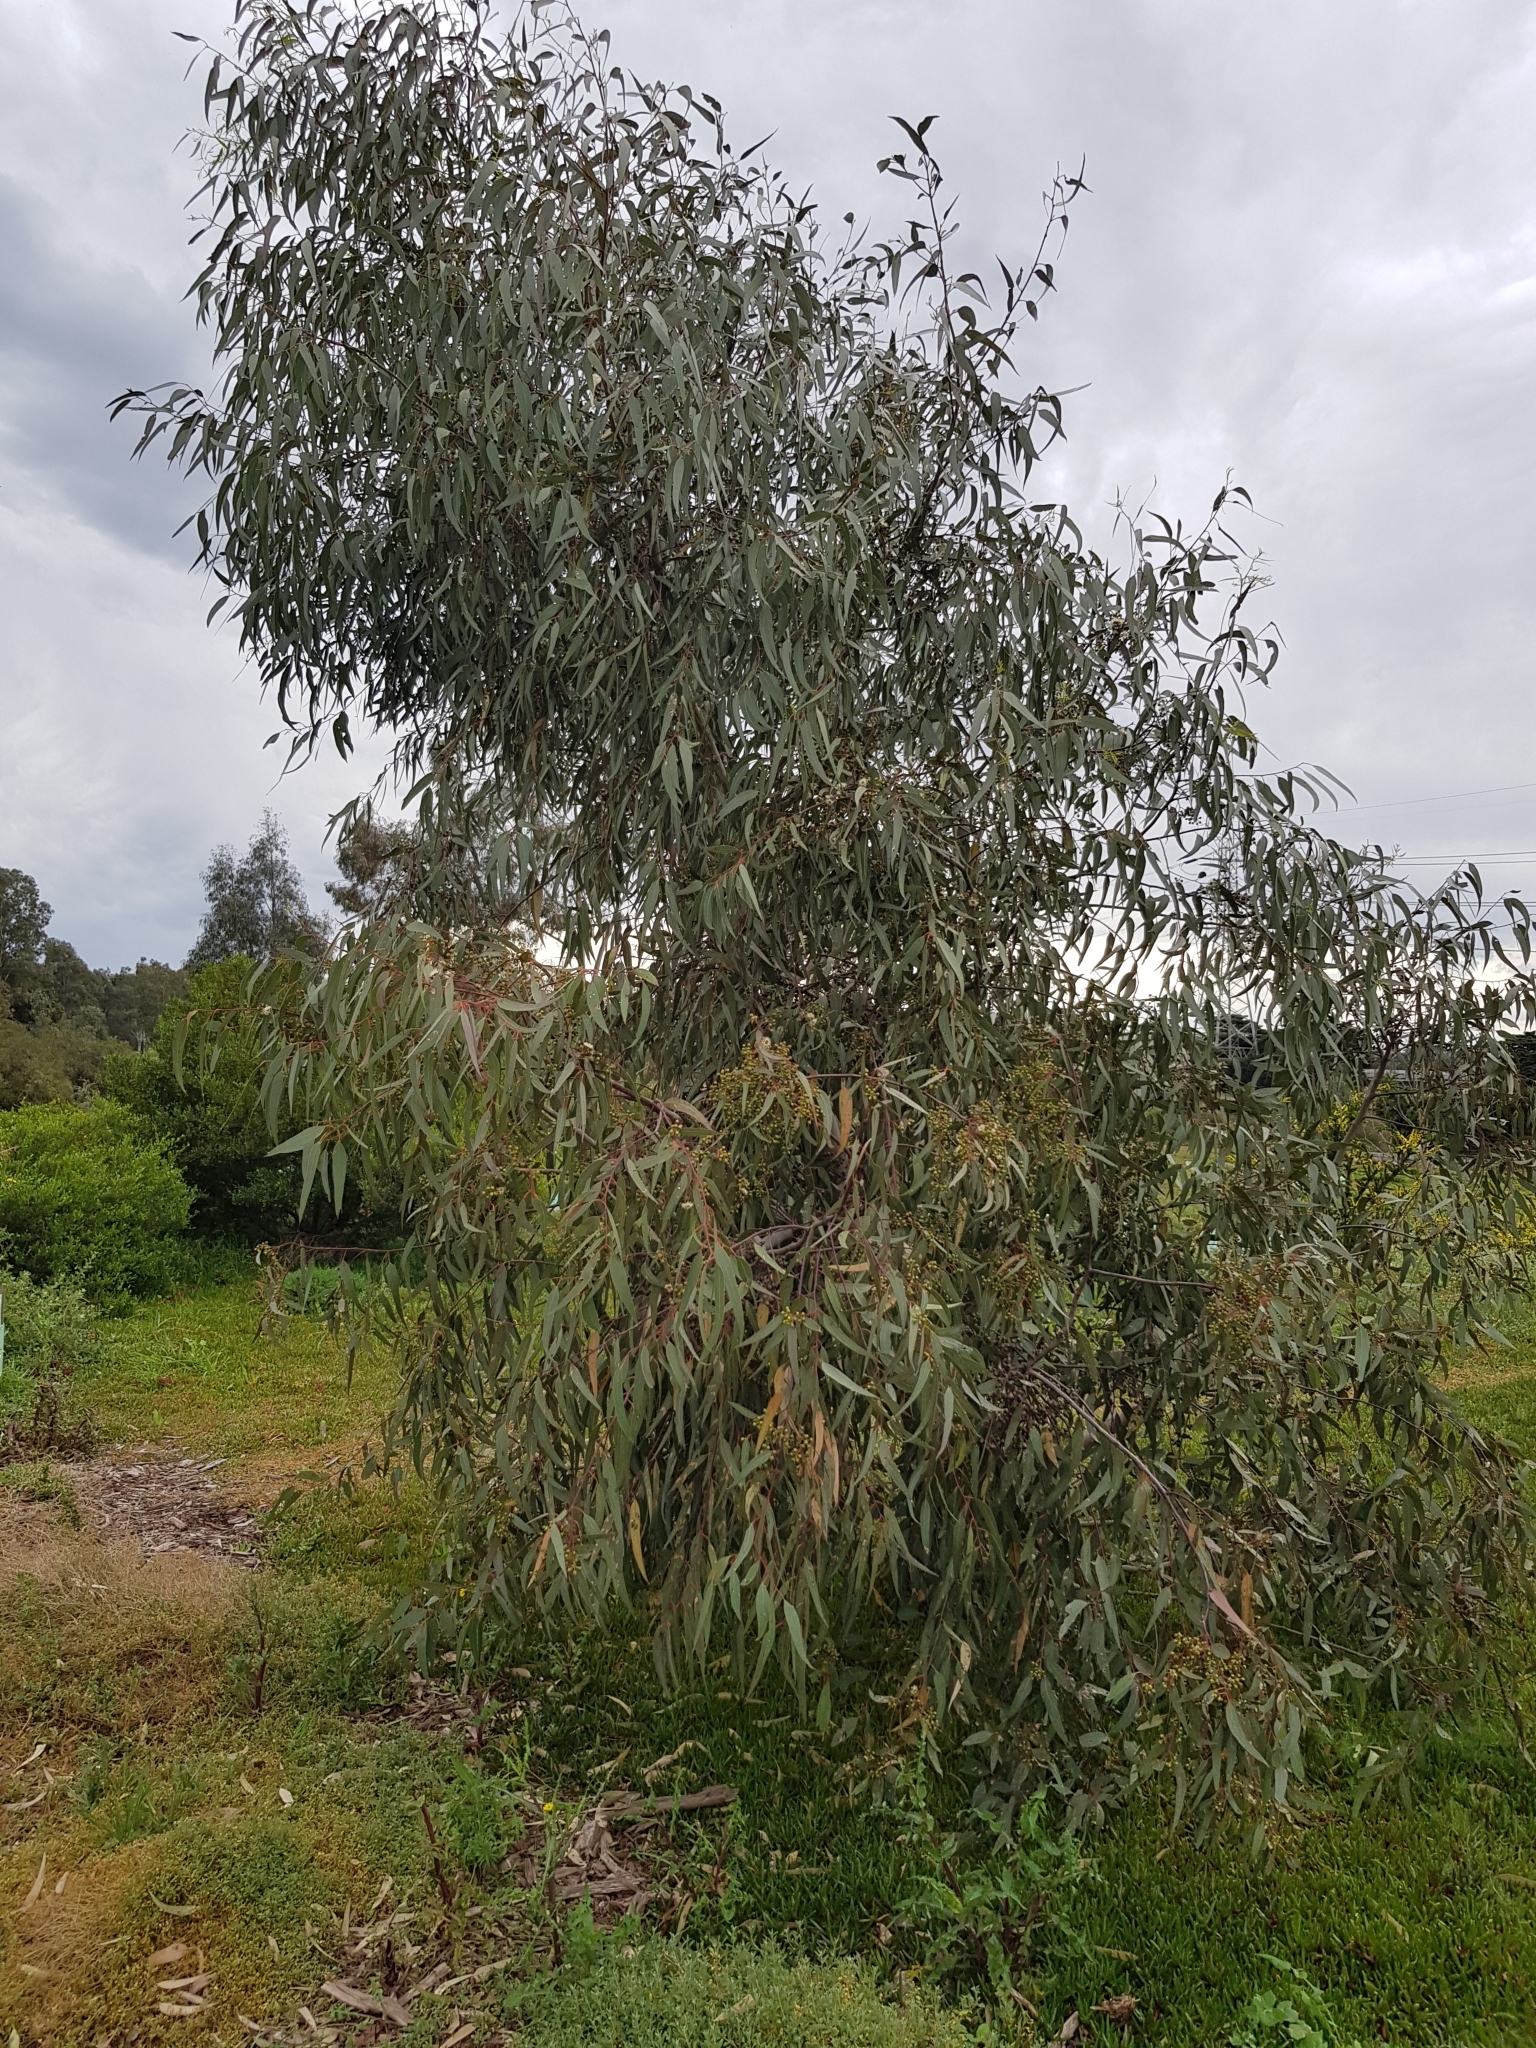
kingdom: Plantae
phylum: Tracheophyta
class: Magnoliopsida
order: Myrtales
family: Myrtaceae
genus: Eucalyptus
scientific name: Eucalyptus camaldulensis
